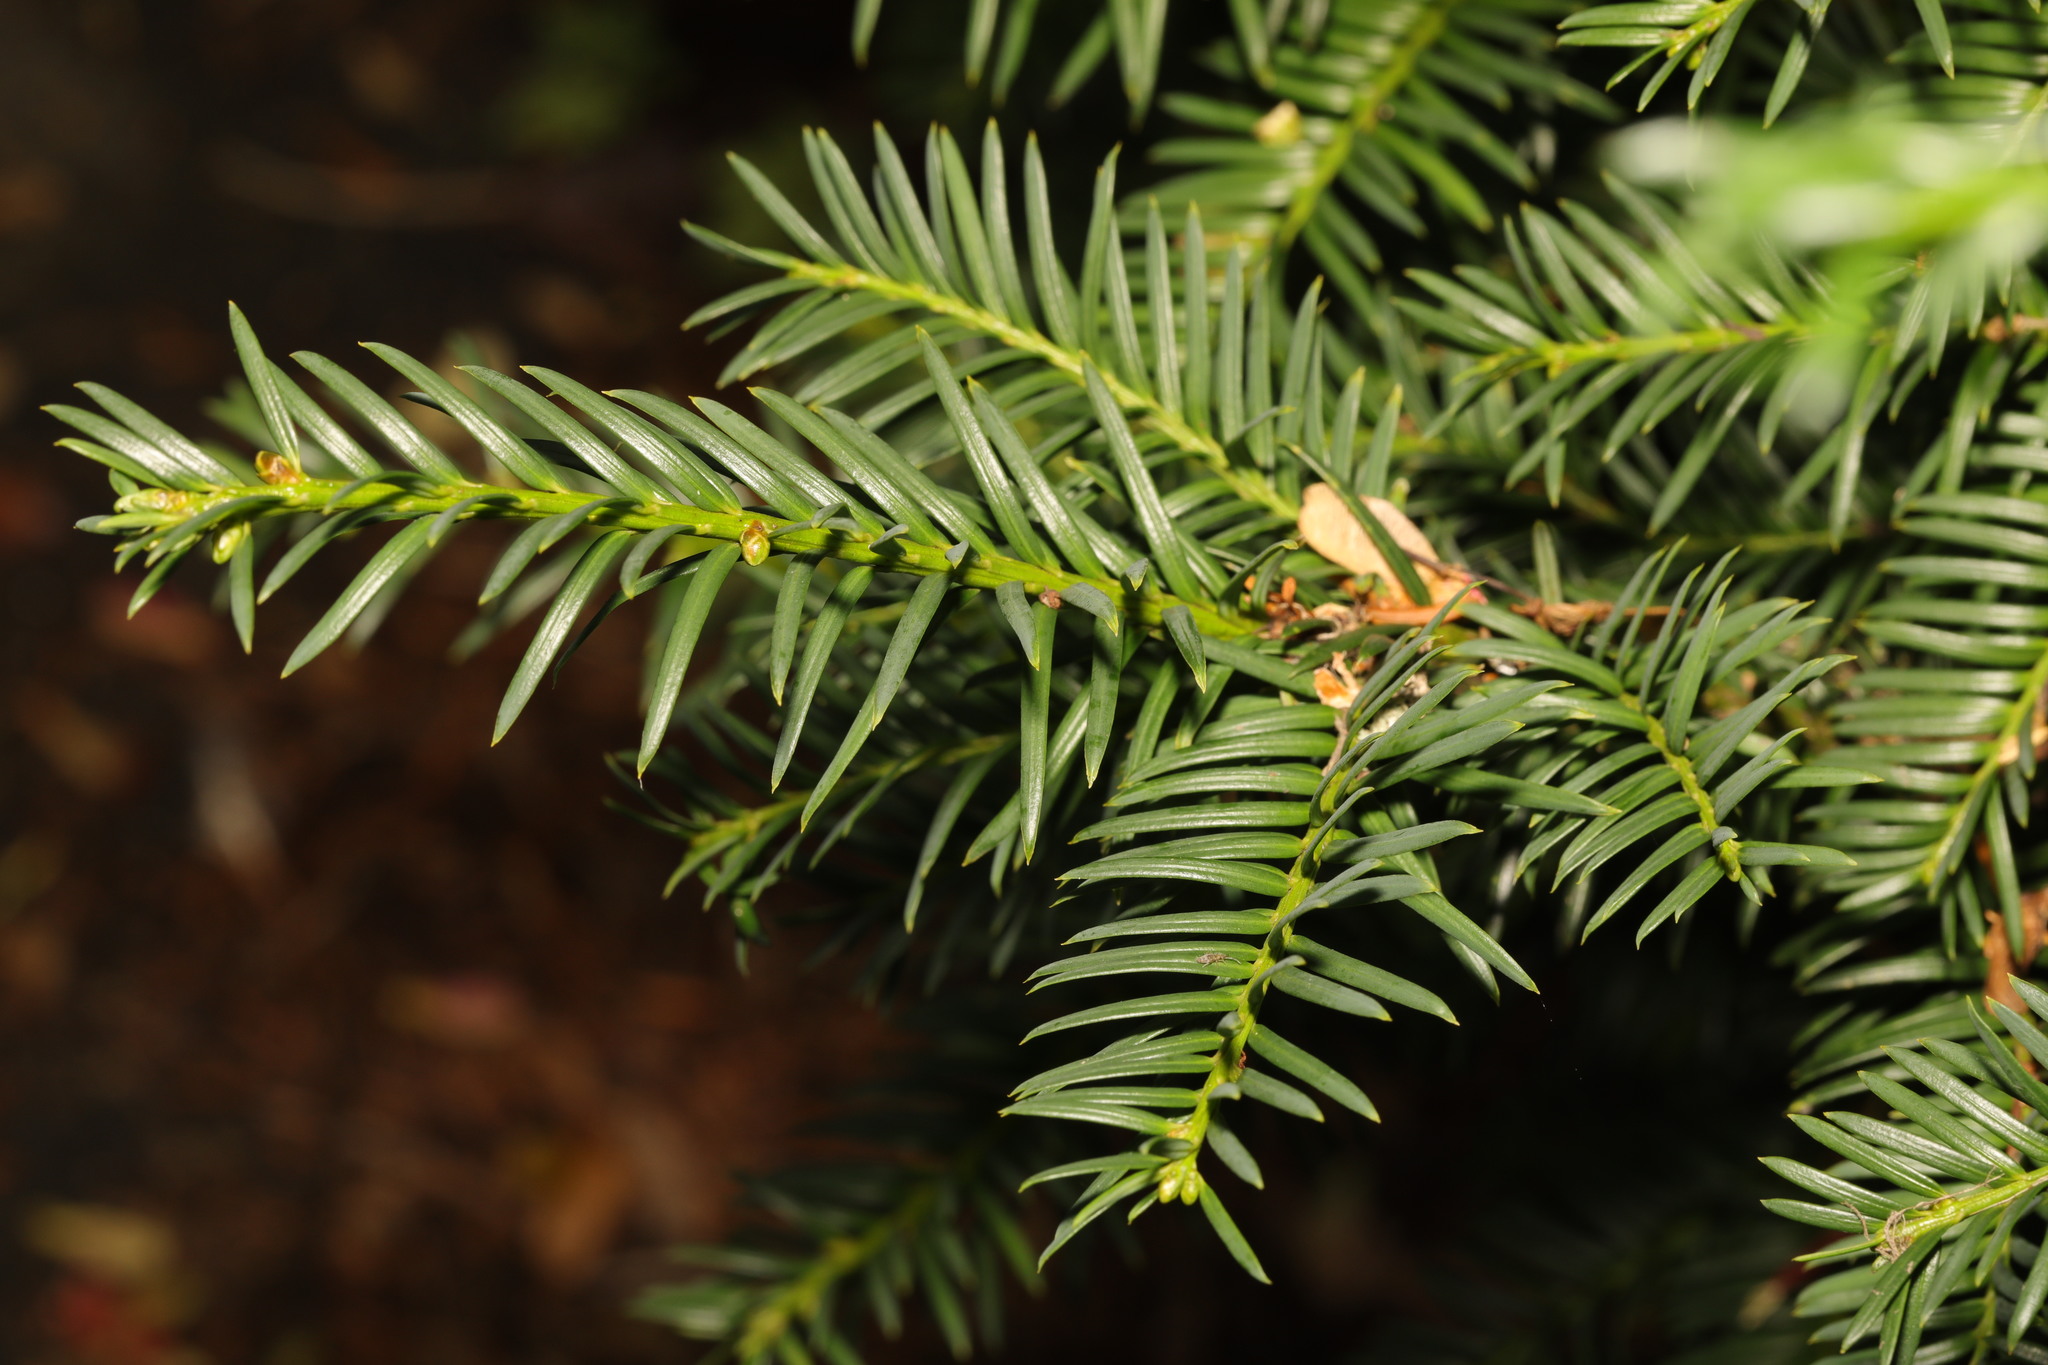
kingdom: Plantae
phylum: Tracheophyta
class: Pinopsida
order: Pinales
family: Taxaceae
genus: Taxus
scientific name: Taxus baccata
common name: Yew
